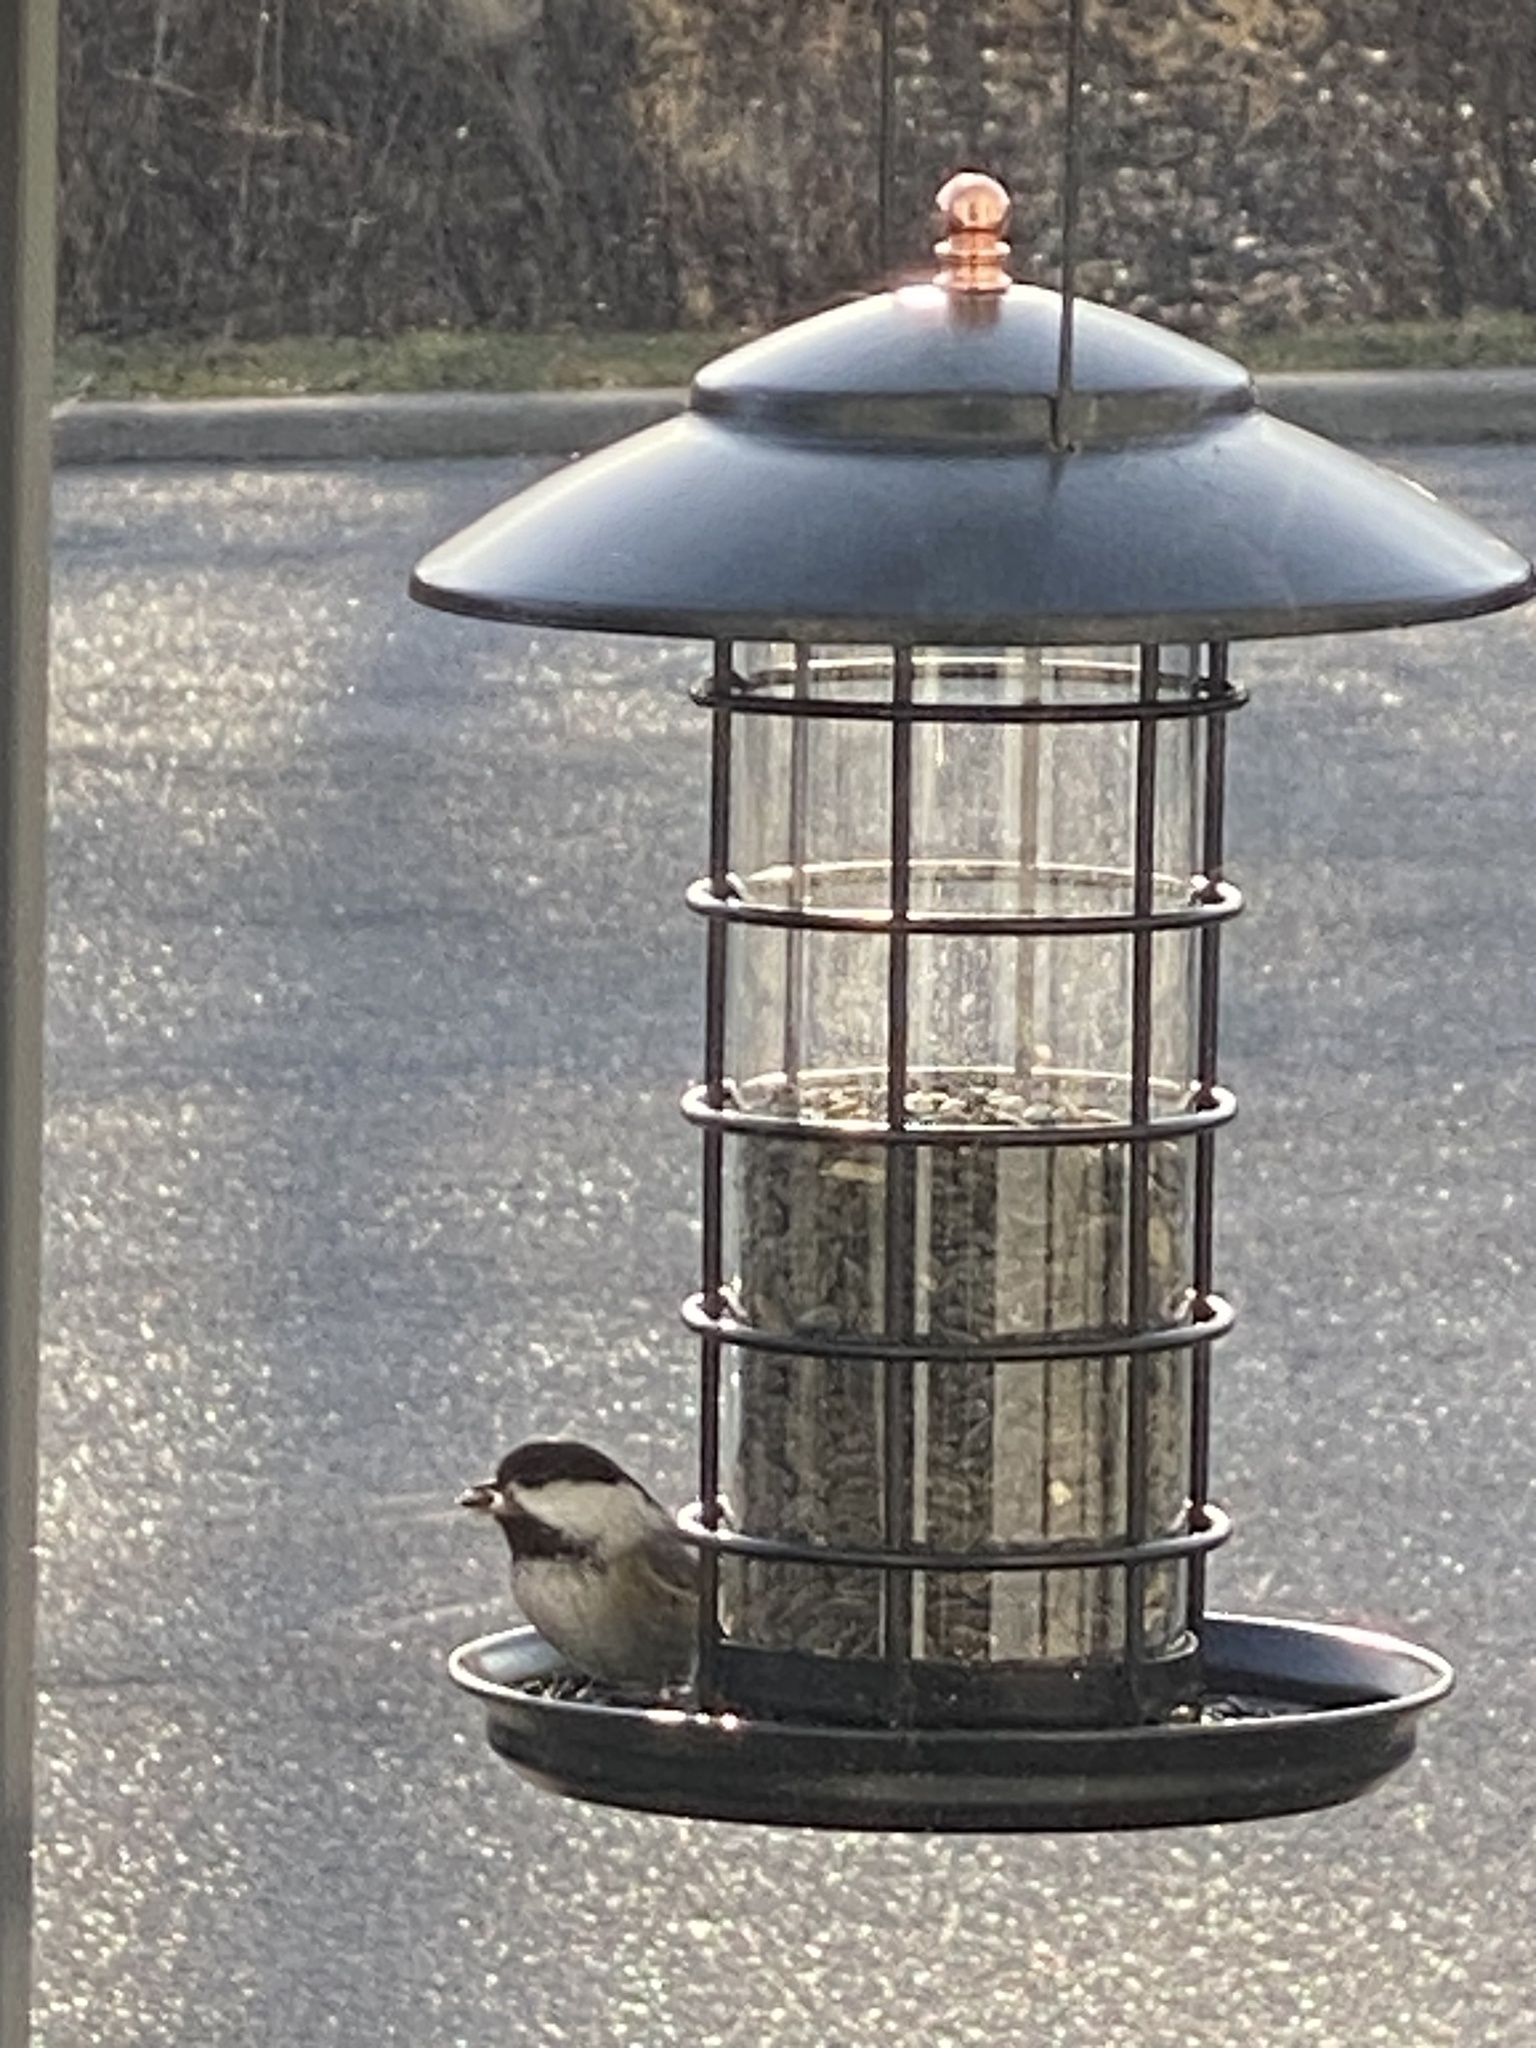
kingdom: Animalia
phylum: Chordata
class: Aves
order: Passeriformes
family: Paridae
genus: Poecile
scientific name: Poecile atricapillus
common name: Black-capped chickadee
